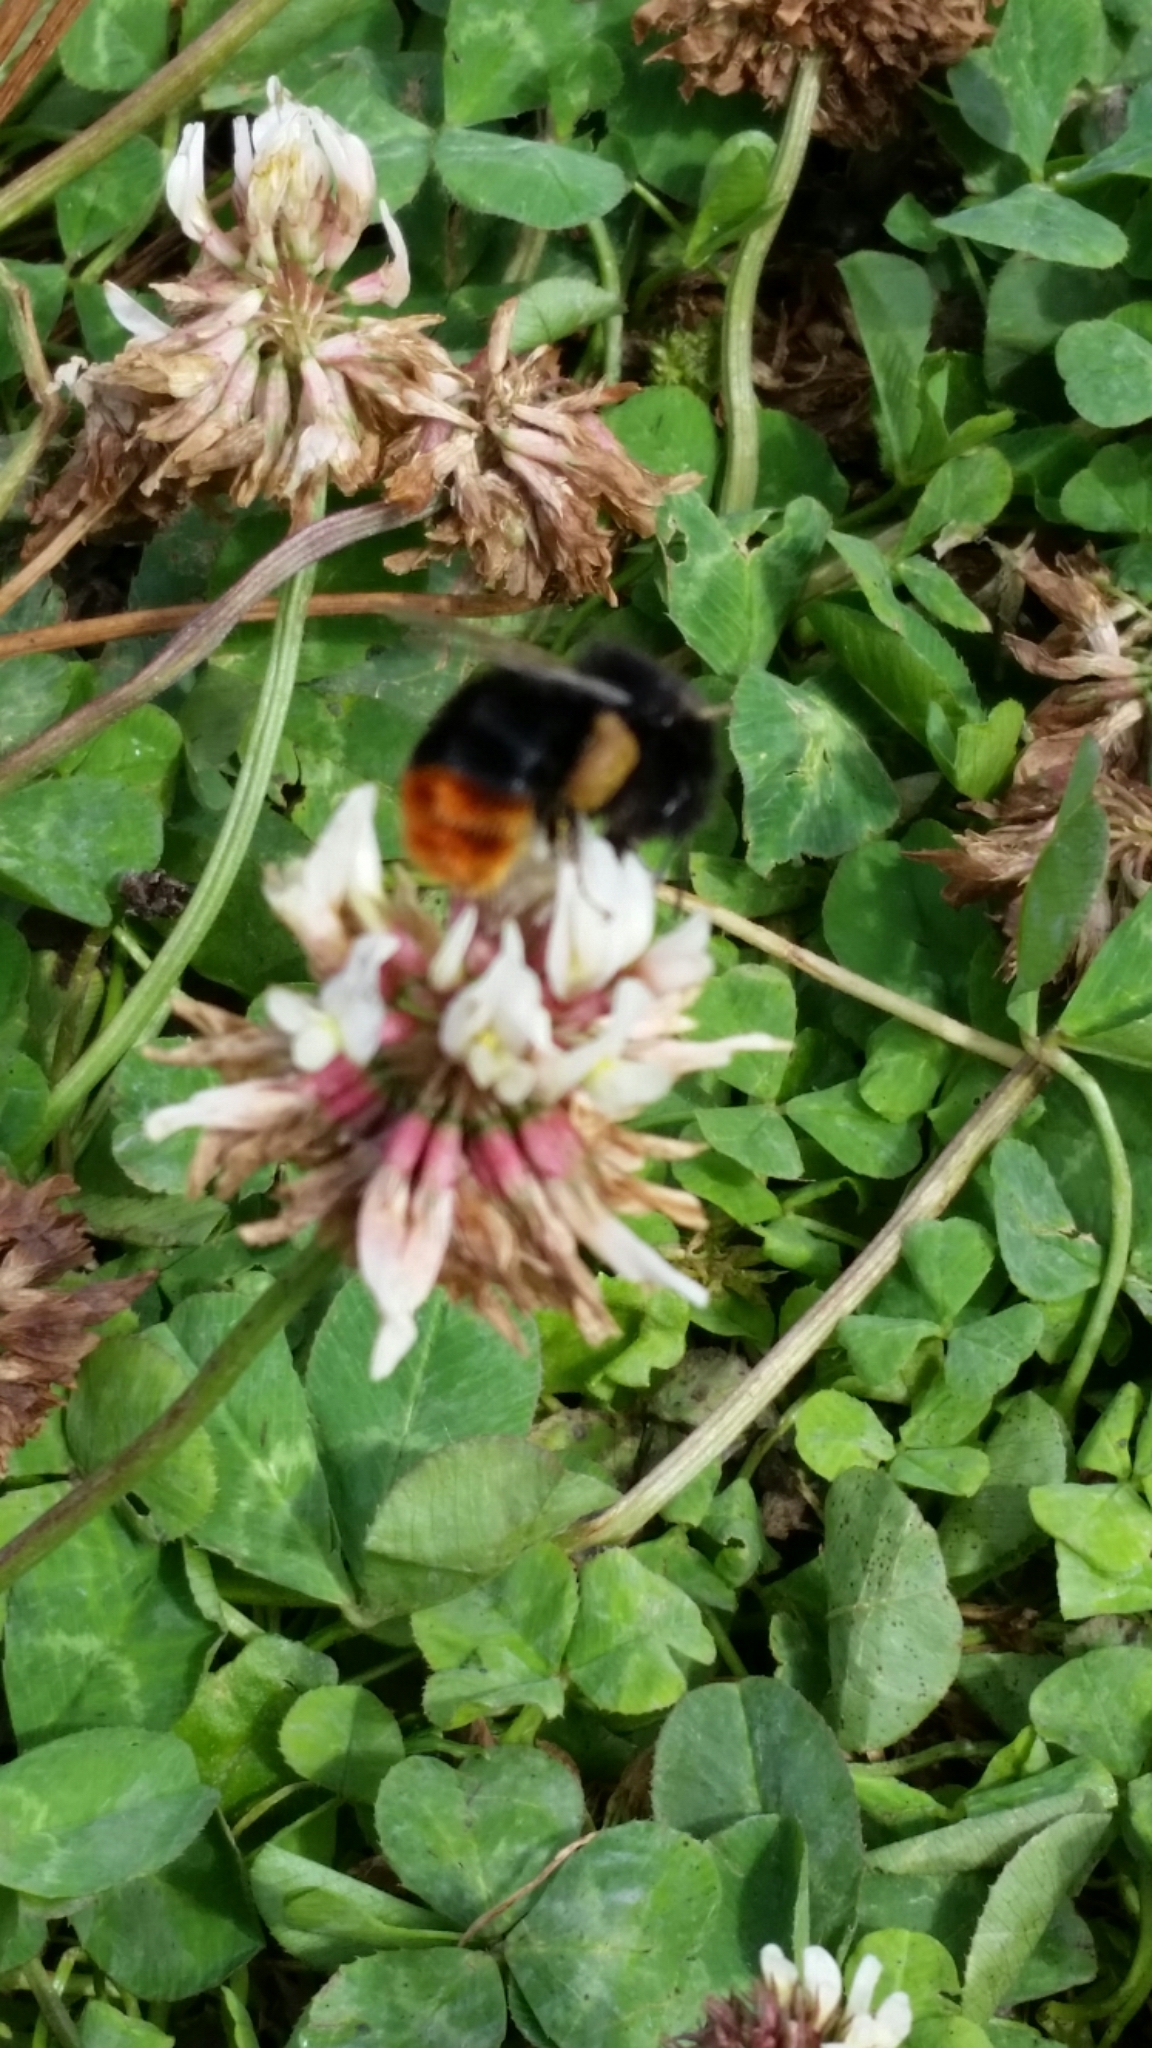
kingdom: Animalia
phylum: Arthropoda
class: Insecta
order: Hymenoptera
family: Apidae
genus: Bombus
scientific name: Bombus lapidarius
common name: Large red-tailed humble-bee
